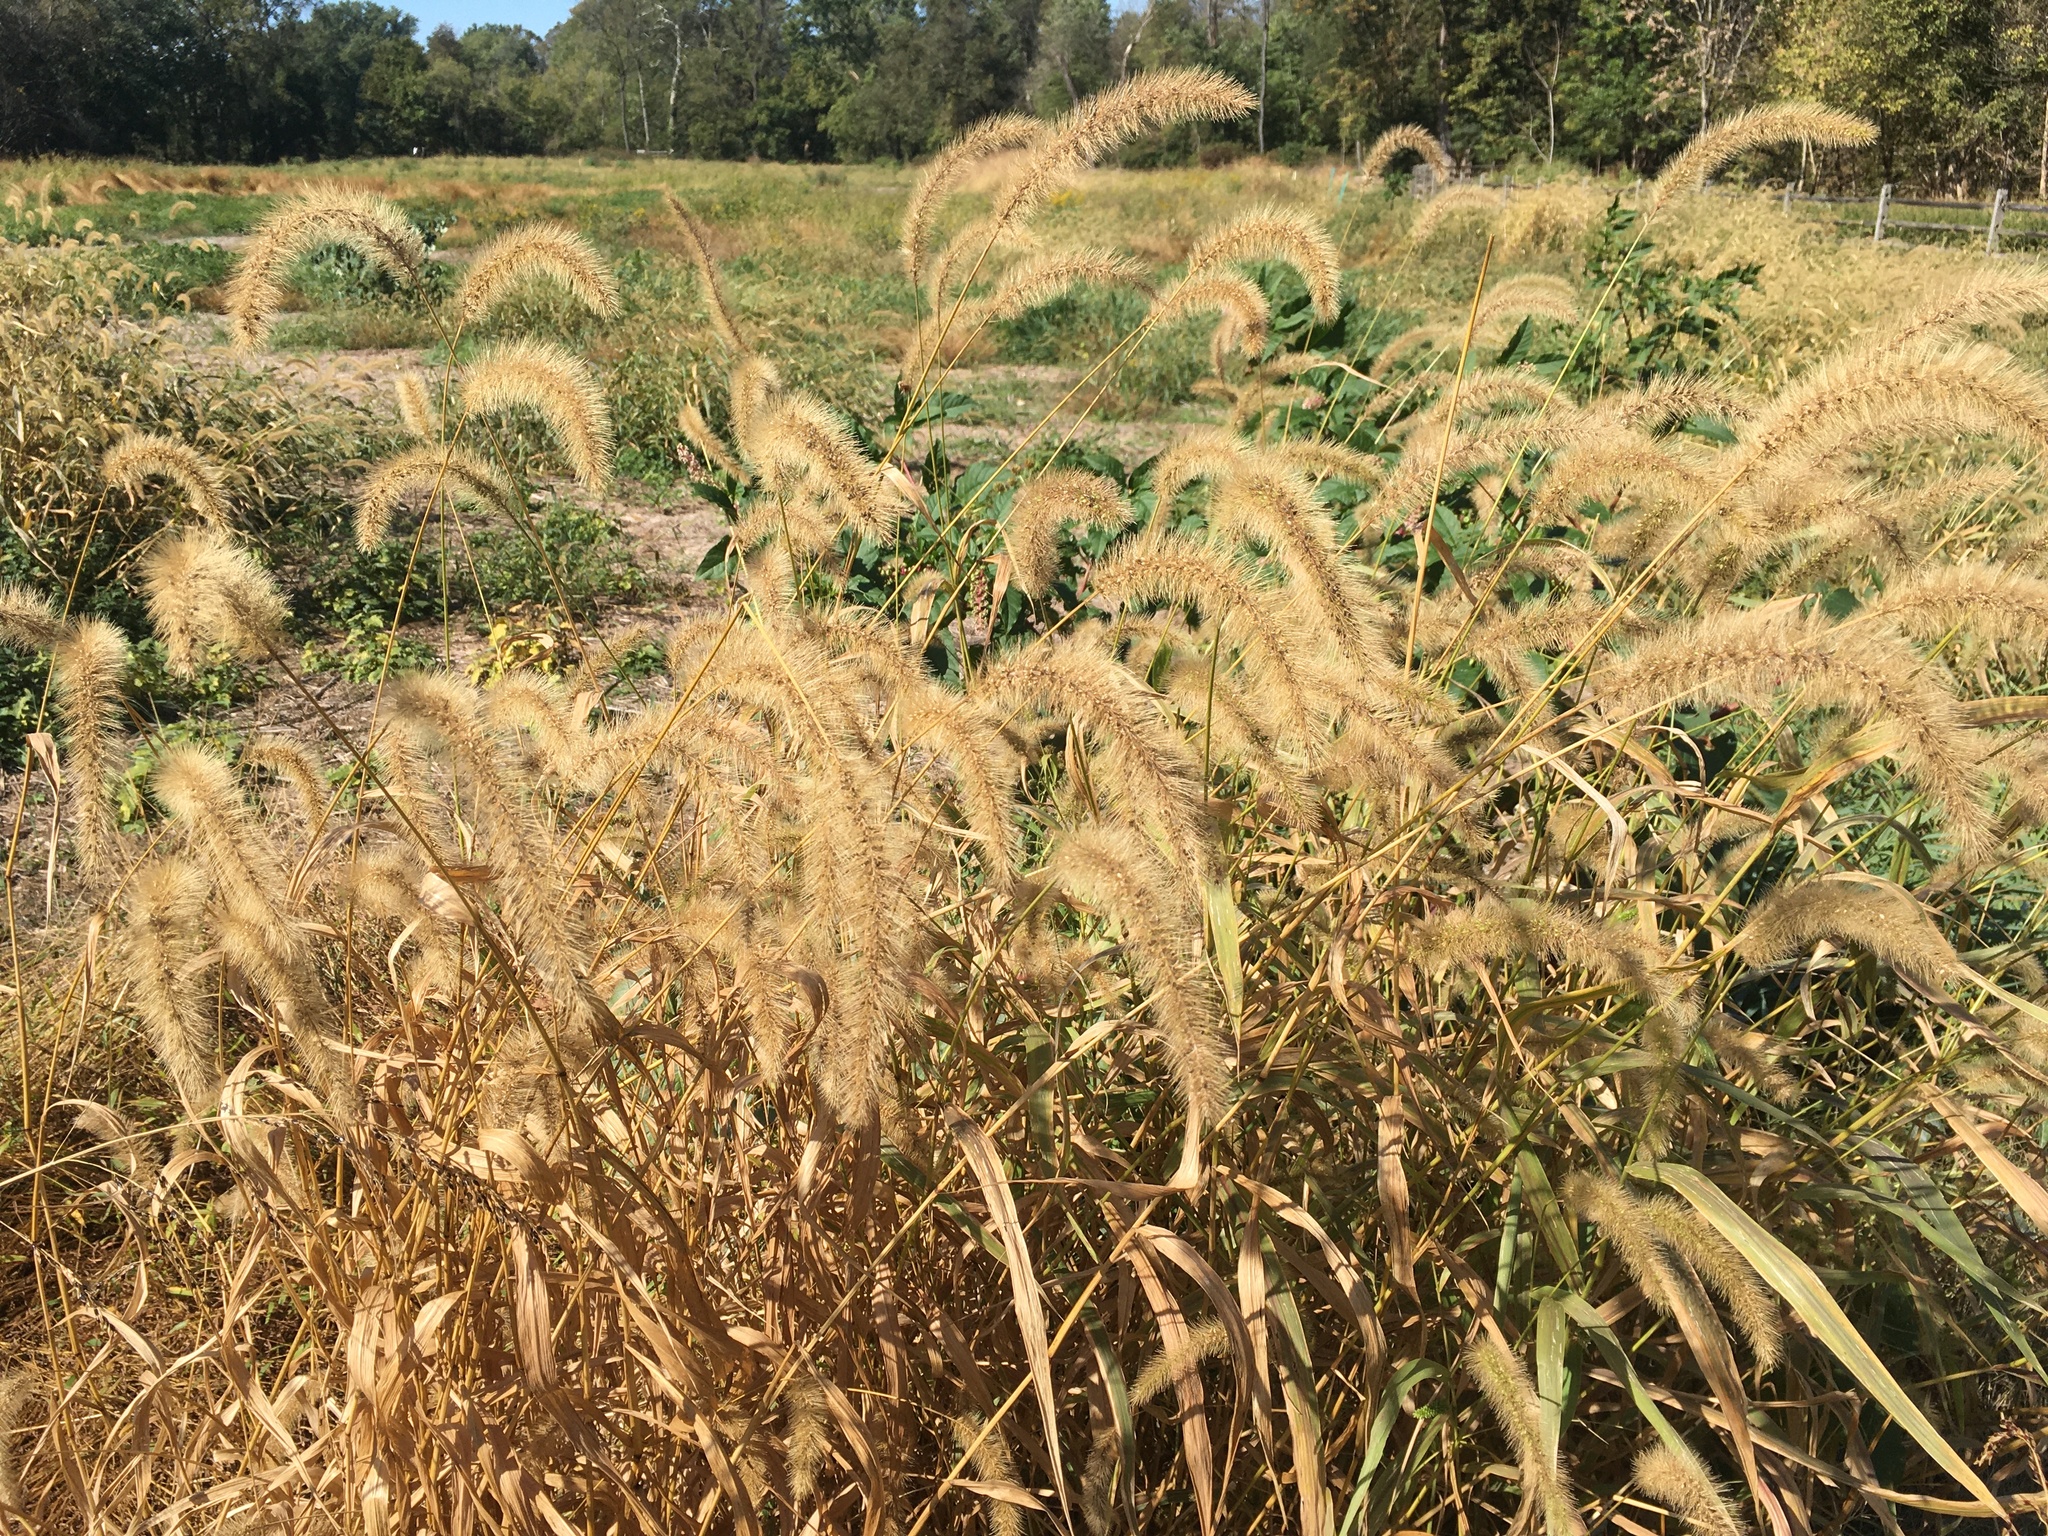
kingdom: Plantae
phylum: Tracheophyta
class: Liliopsida
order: Poales
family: Poaceae
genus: Setaria
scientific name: Setaria faberi
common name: Nodding bristle-grass
